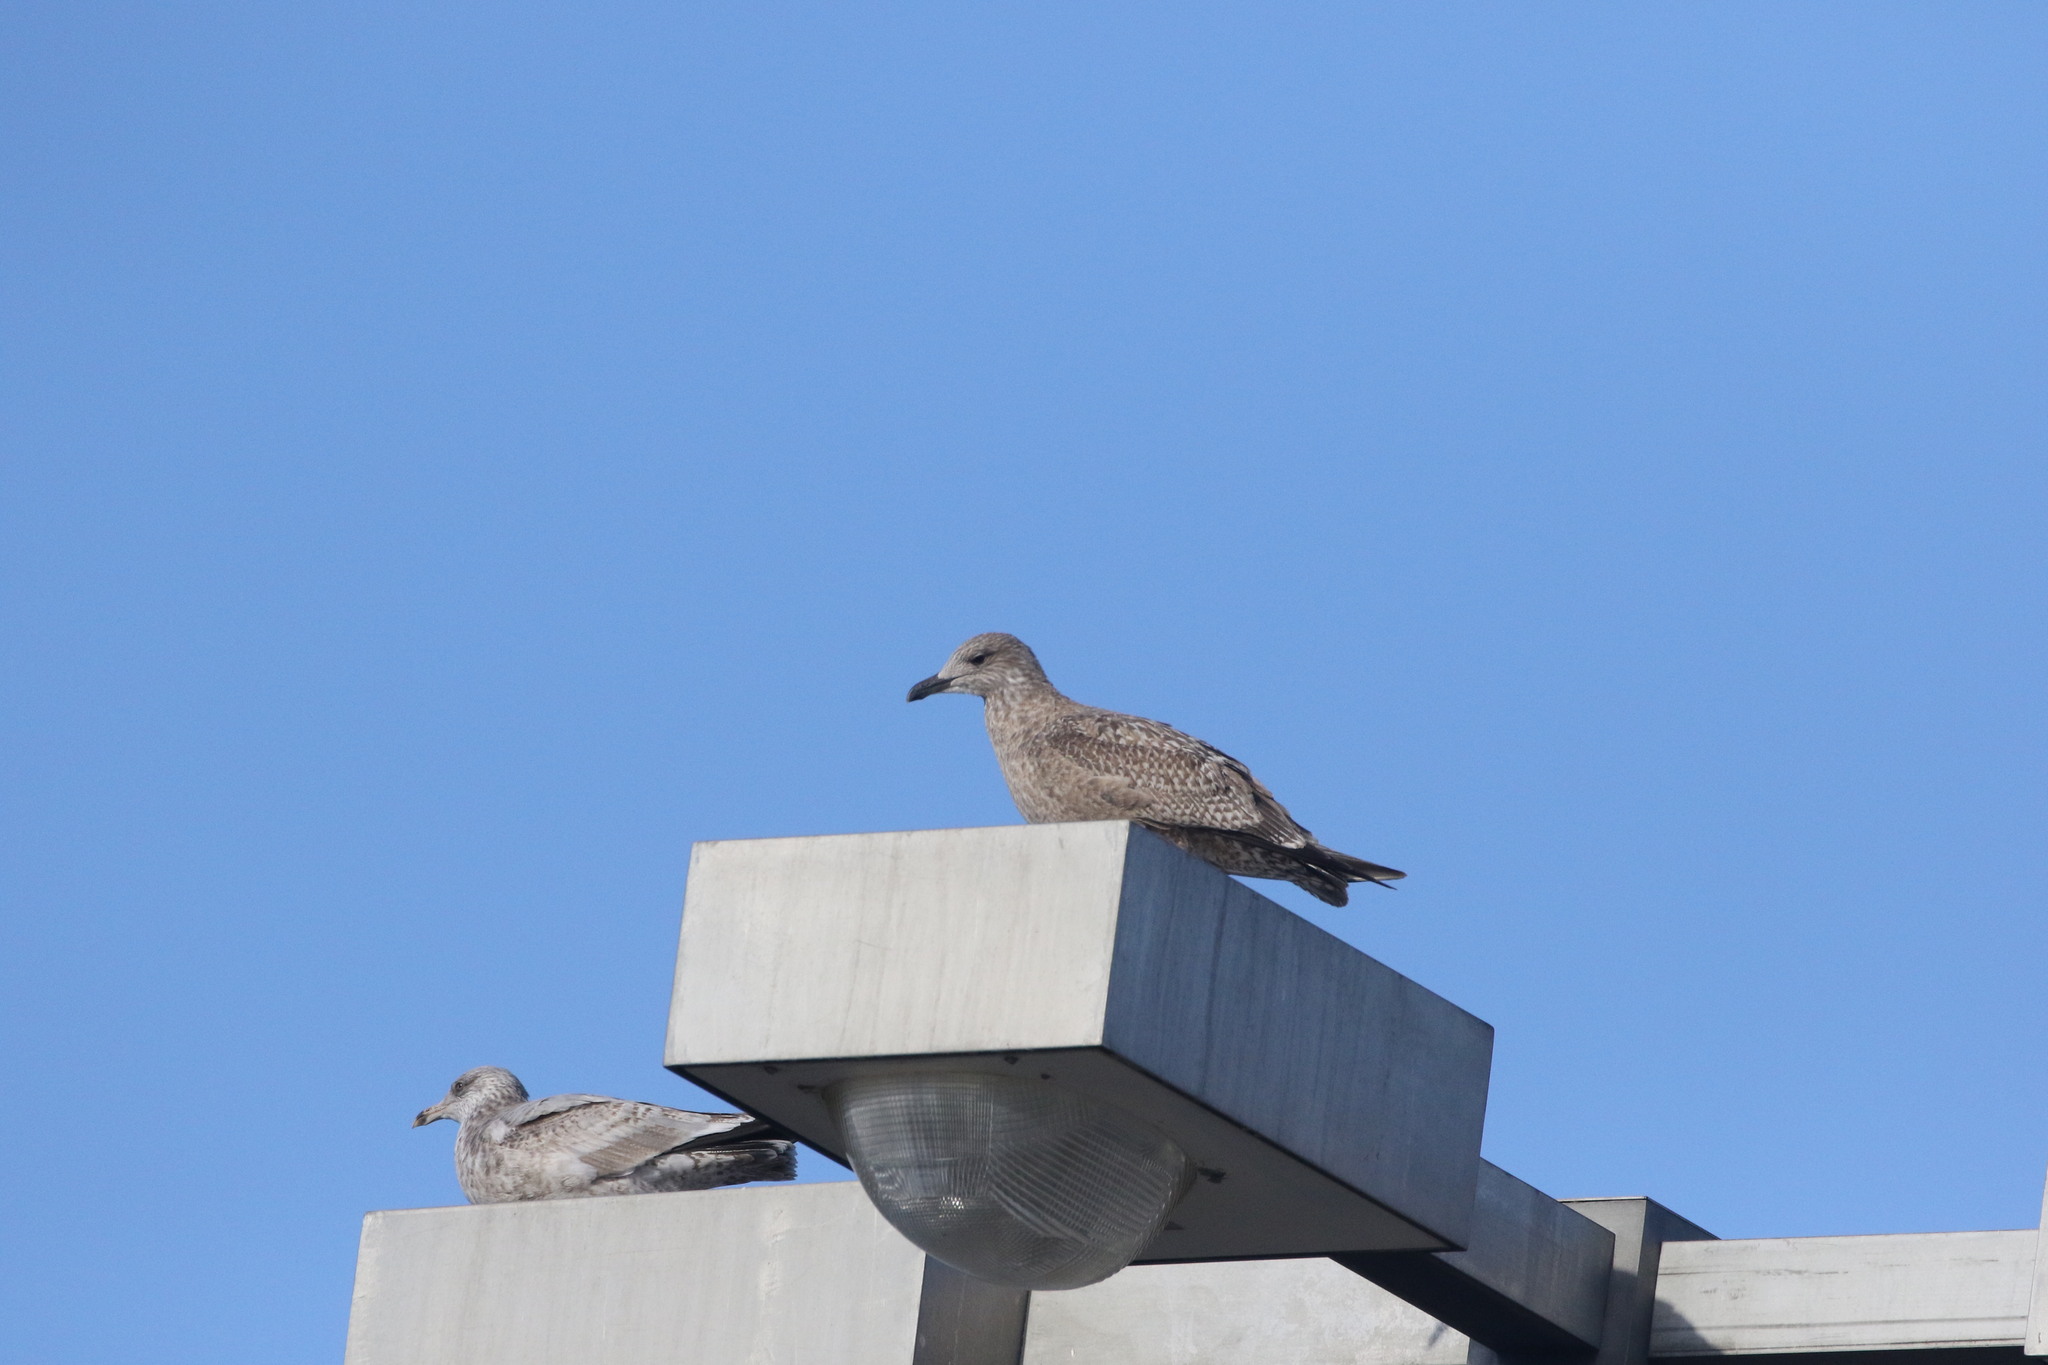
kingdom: Animalia
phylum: Chordata
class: Aves
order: Charadriiformes
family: Laridae
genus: Larus
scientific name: Larus argentatus
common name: Herring gull
